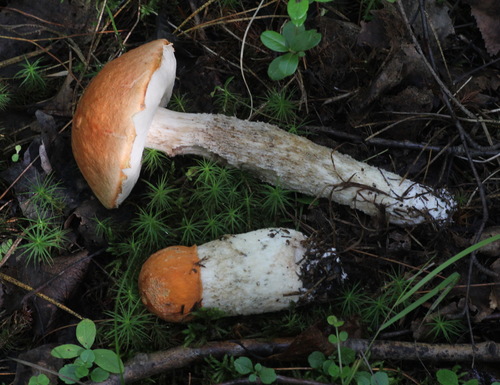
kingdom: Fungi
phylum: Basidiomycota
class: Agaricomycetes
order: Boletales
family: Boletaceae
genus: Leccinum
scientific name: Leccinum albostipitatum
